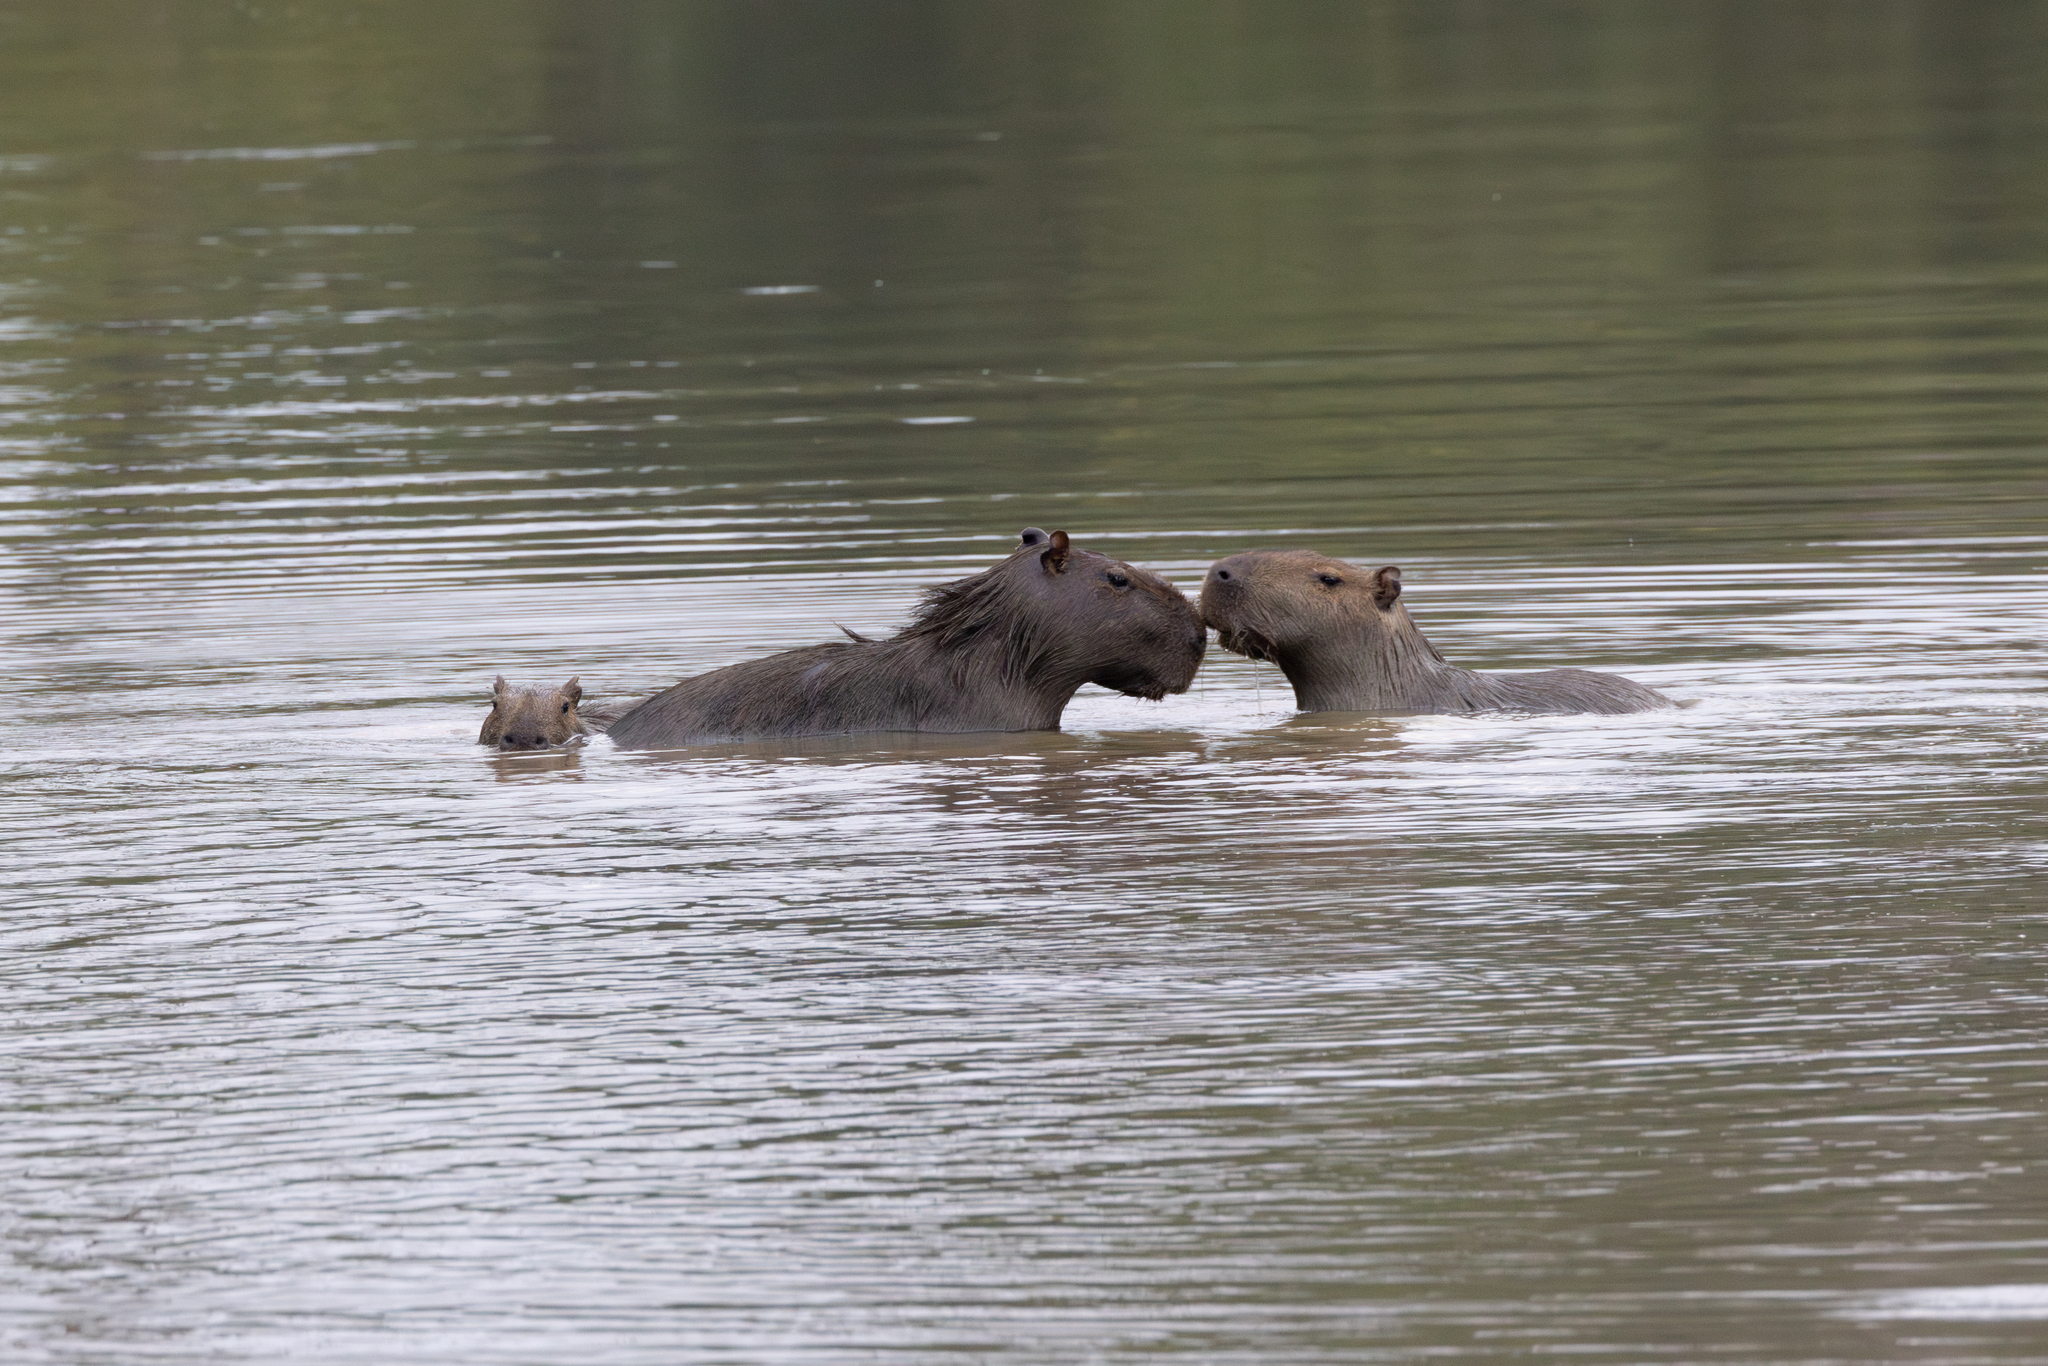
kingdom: Animalia
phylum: Chordata
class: Mammalia
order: Rodentia
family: Caviidae
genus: Hydrochoerus
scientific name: Hydrochoerus hydrochaeris
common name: Capybara
